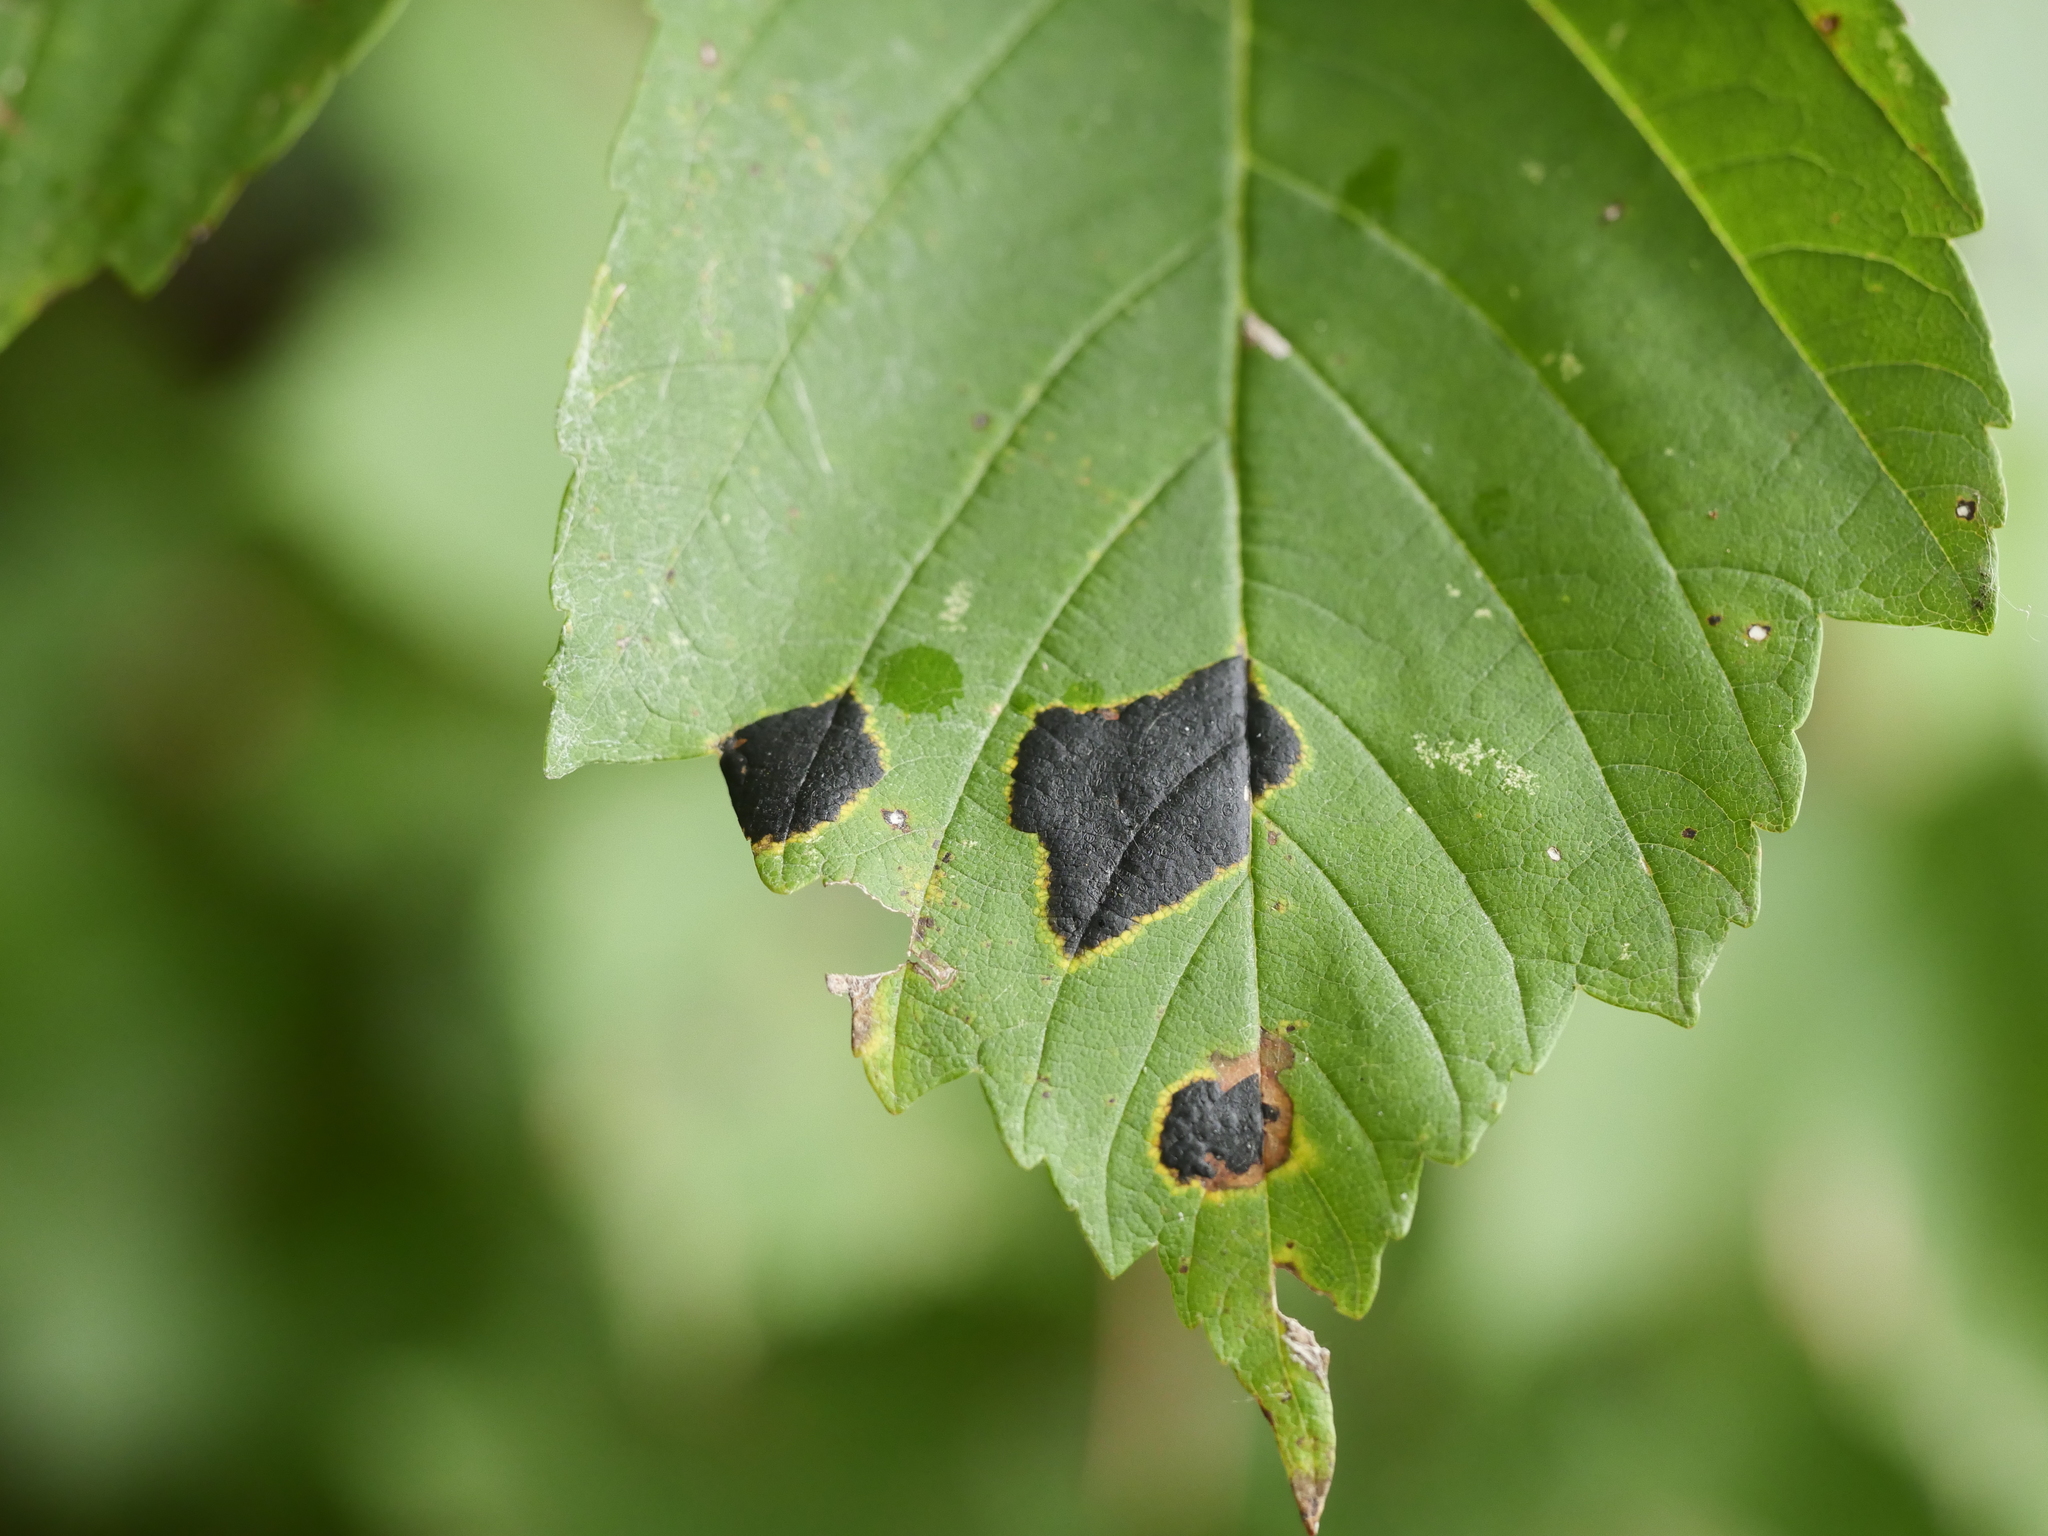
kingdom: Fungi
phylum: Ascomycota
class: Leotiomycetes
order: Rhytismatales
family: Rhytismataceae
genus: Rhytisma
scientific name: Rhytisma acerinum
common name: European tar spot
